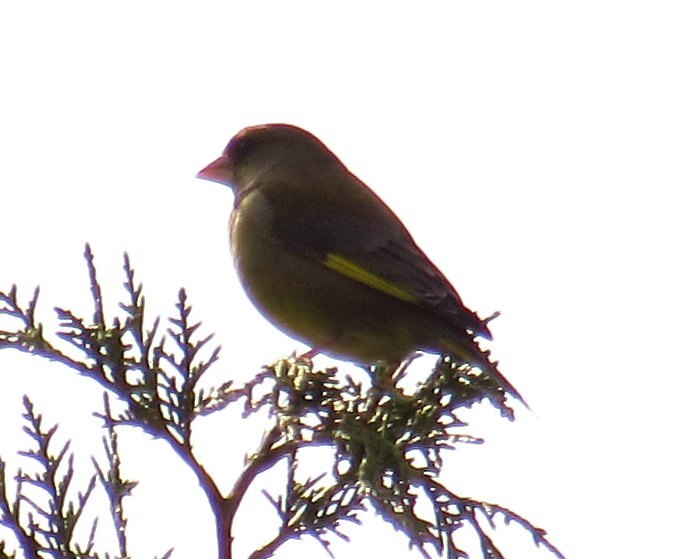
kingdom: Plantae
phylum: Tracheophyta
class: Liliopsida
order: Poales
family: Poaceae
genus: Chloris
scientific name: Chloris chloris
